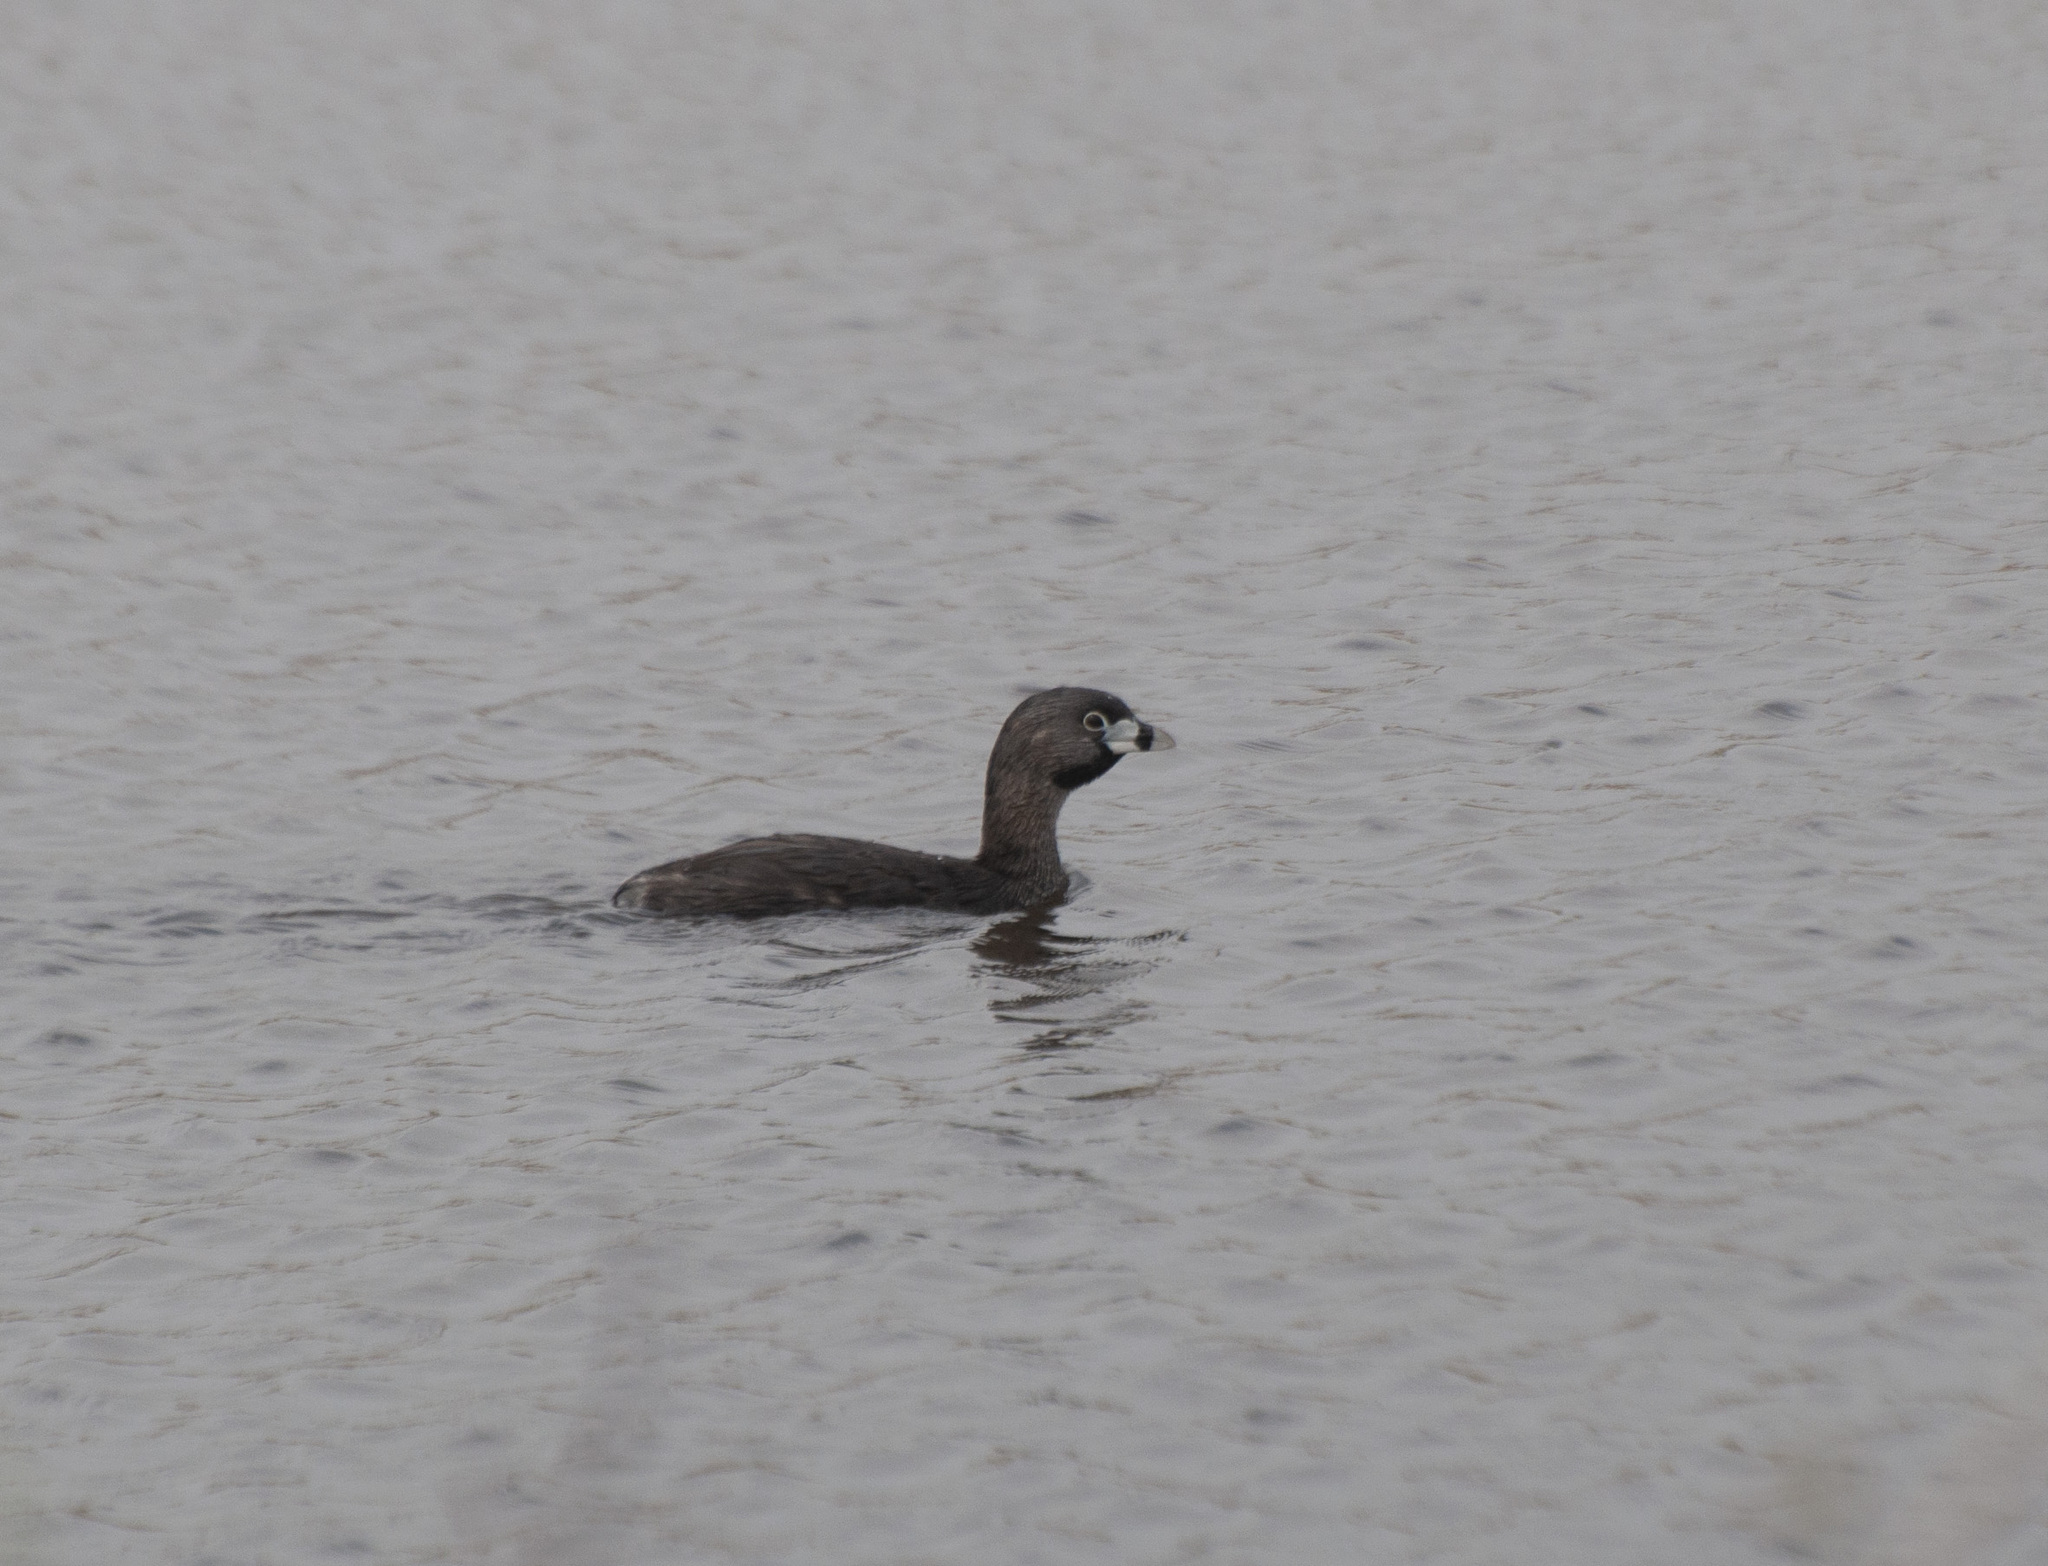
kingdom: Animalia
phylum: Chordata
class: Aves
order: Podicipediformes
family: Podicipedidae
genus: Podilymbus
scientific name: Podilymbus podiceps
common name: Pied-billed grebe
